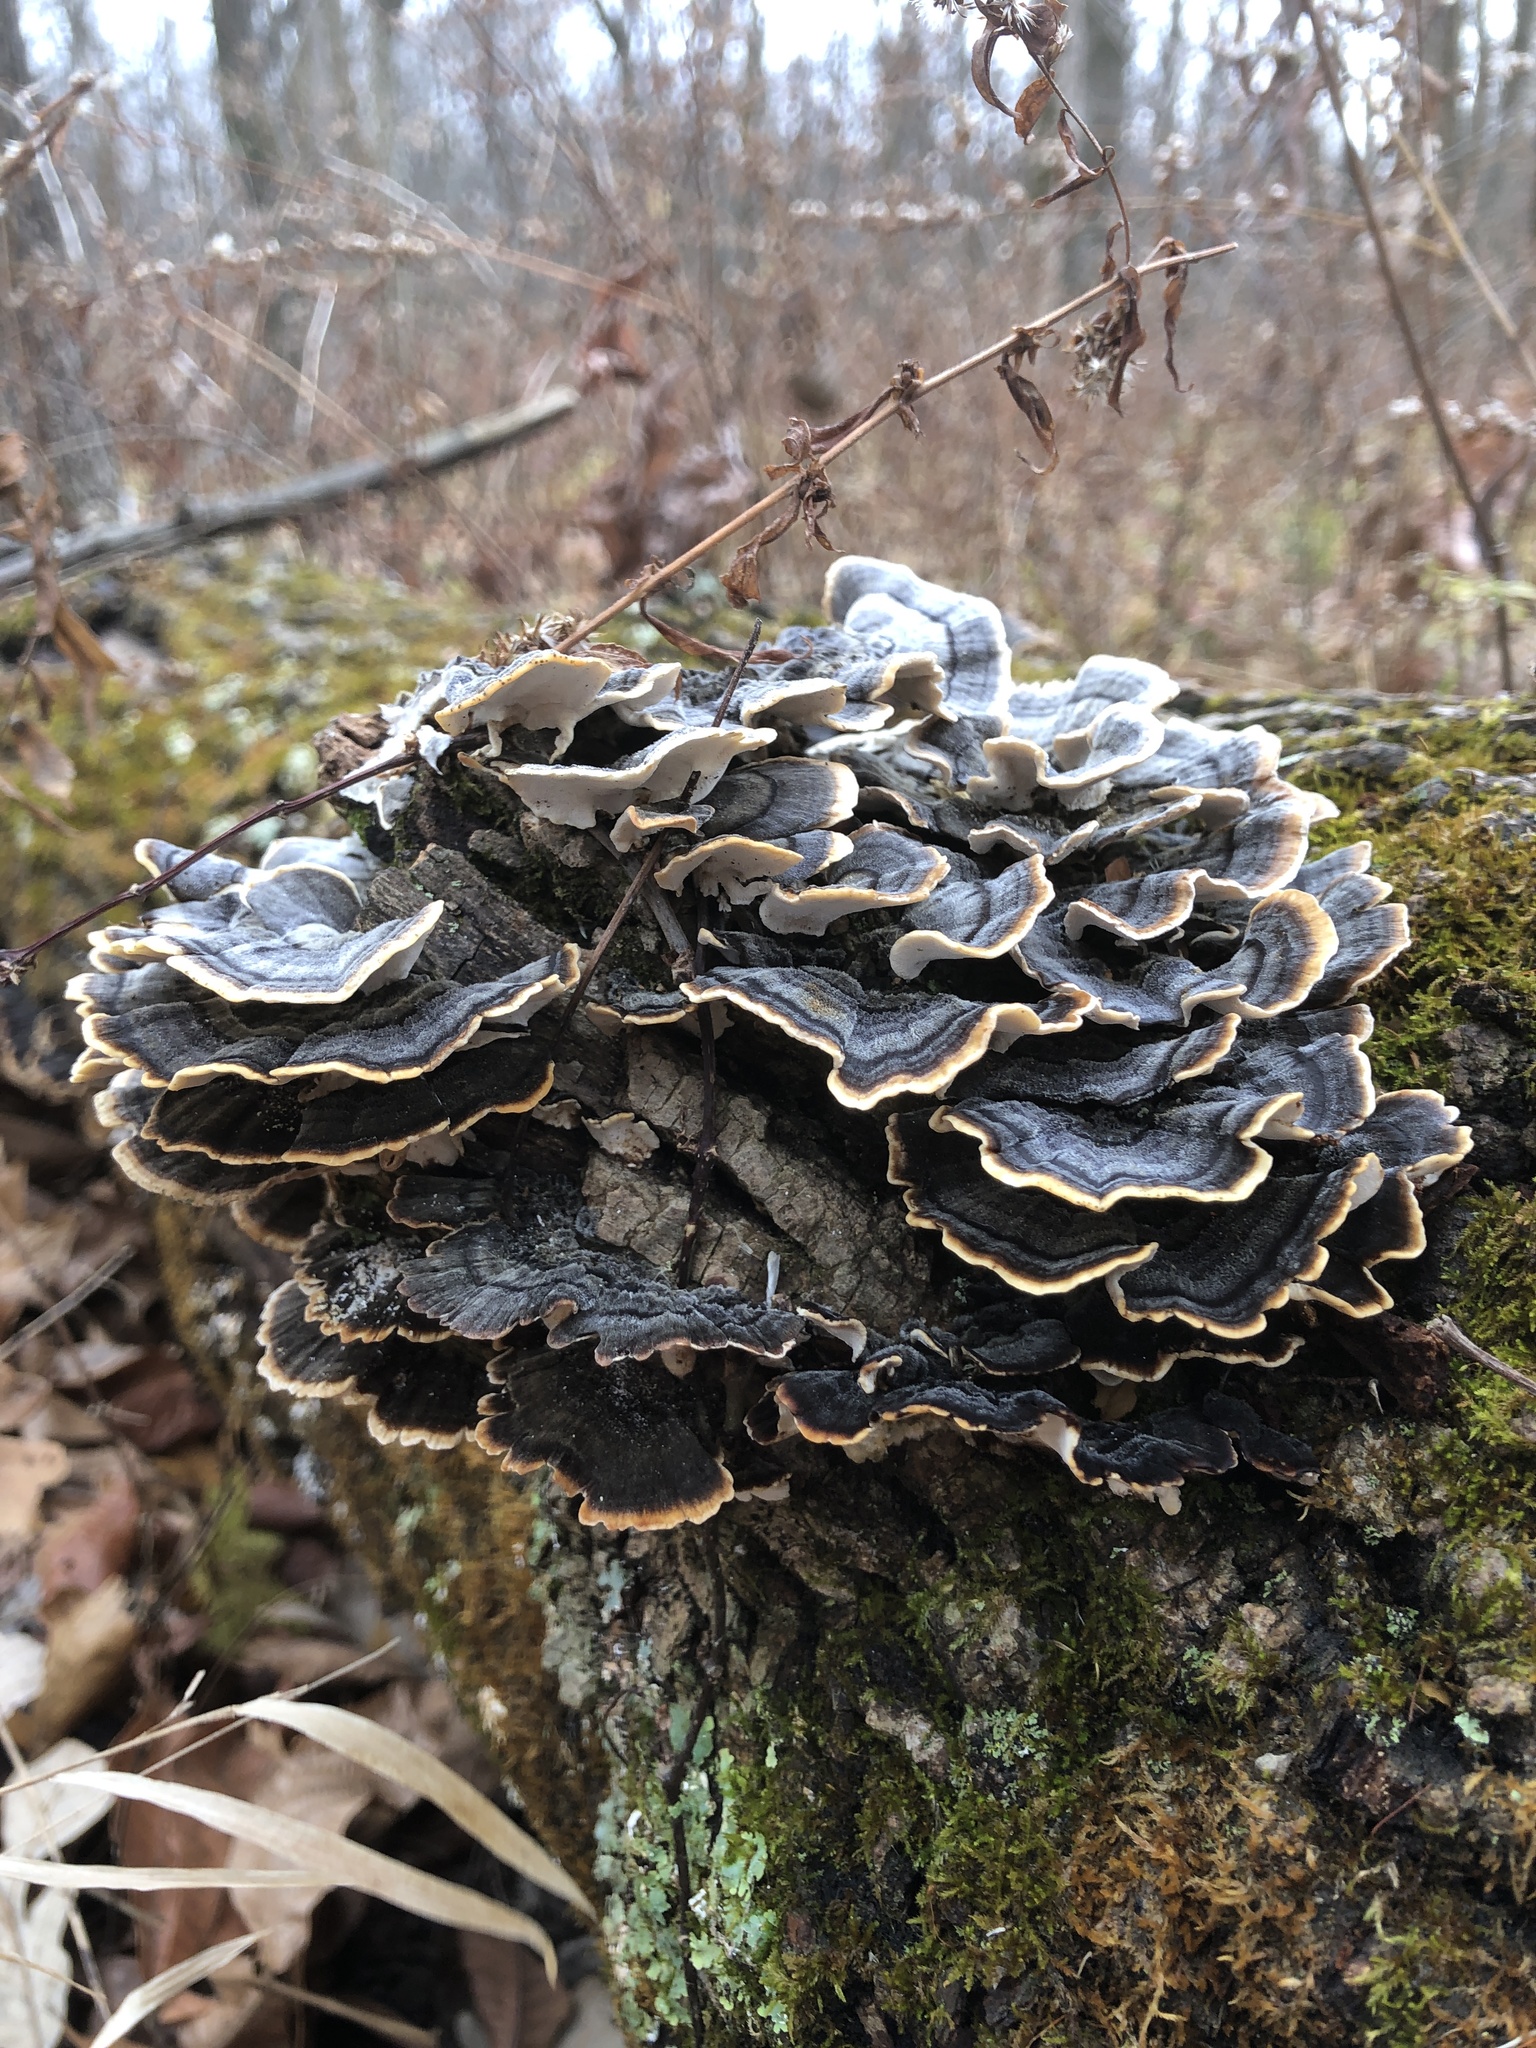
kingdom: Fungi
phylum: Basidiomycota
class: Agaricomycetes
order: Polyporales
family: Polyporaceae
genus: Trametes
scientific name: Trametes versicolor
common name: Turkeytail
